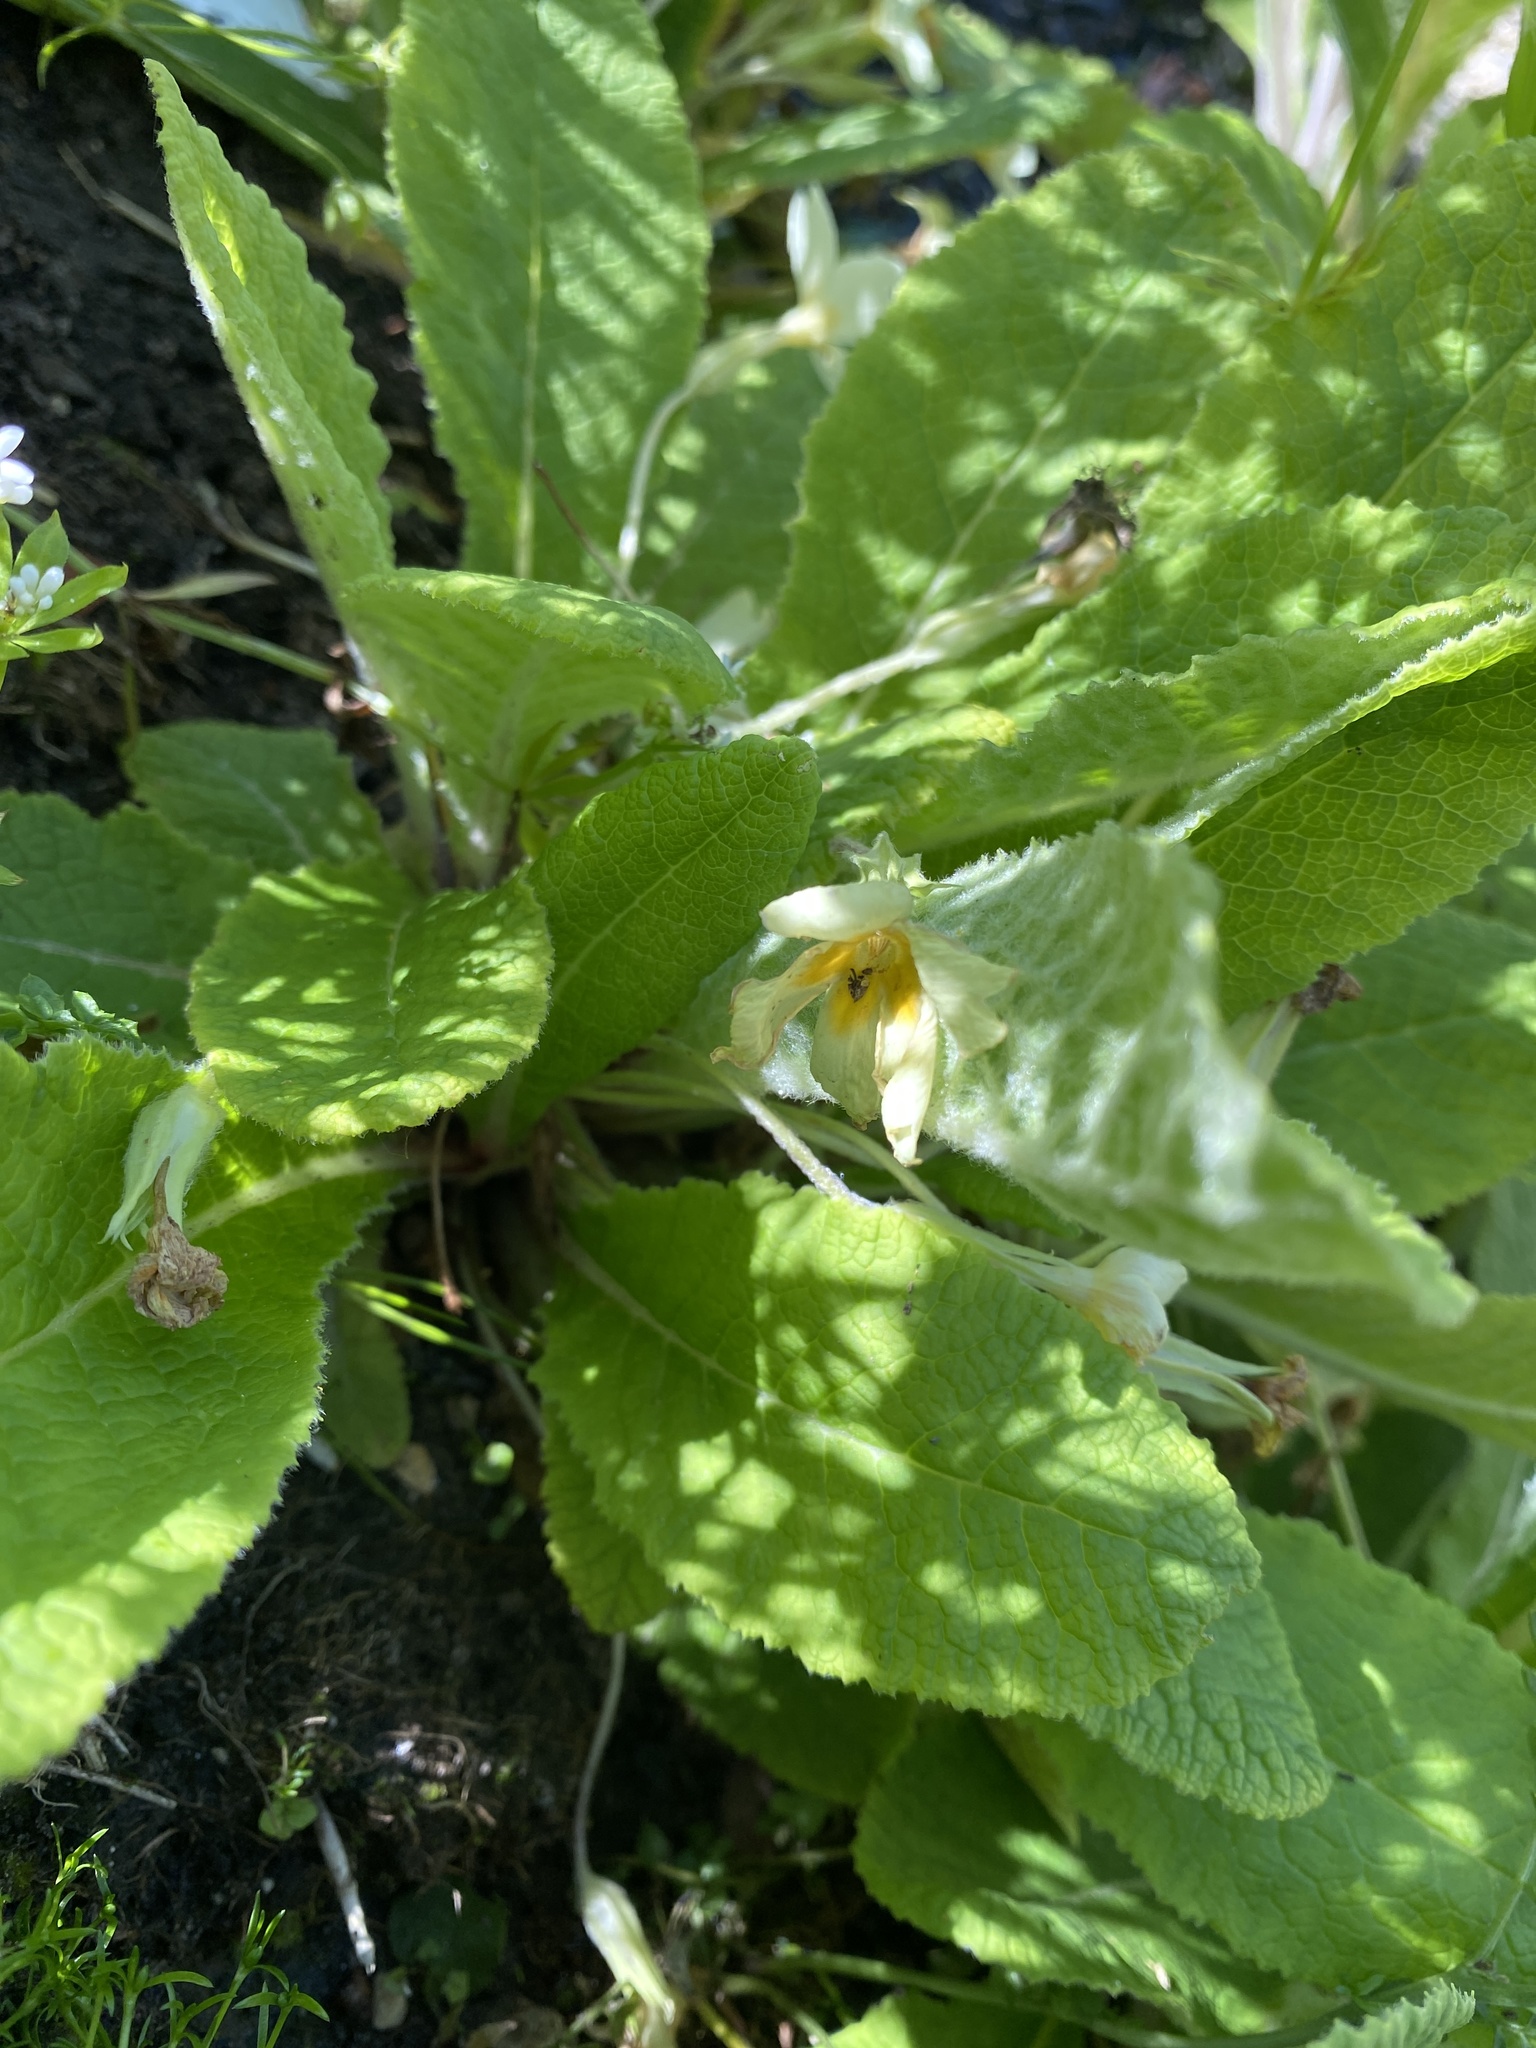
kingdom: Plantae
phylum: Tracheophyta
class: Magnoliopsida
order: Ericales
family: Primulaceae
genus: Primula
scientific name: Primula vulgaris
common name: Primrose
